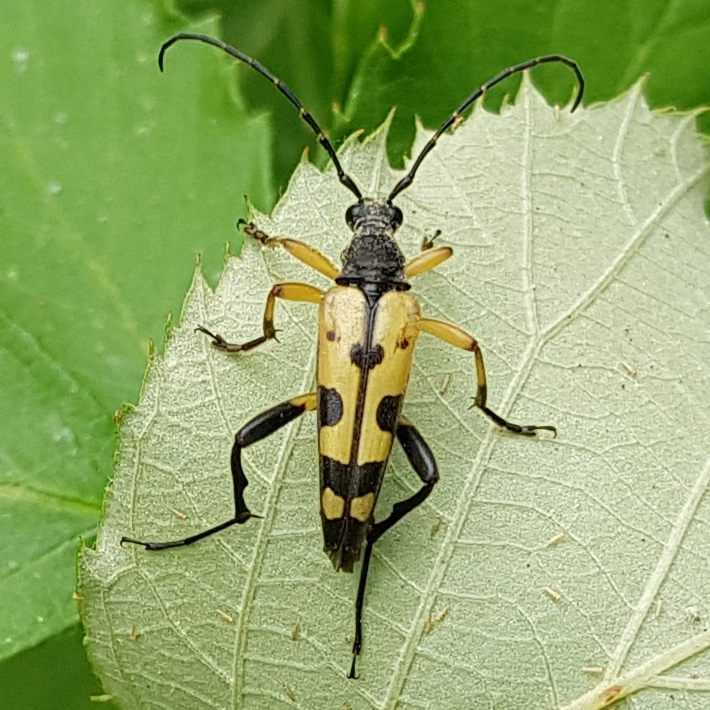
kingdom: Animalia
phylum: Arthropoda
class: Insecta
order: Coleoptera
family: Cerambycidae
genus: Rutpela
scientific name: Rutpela maculata
